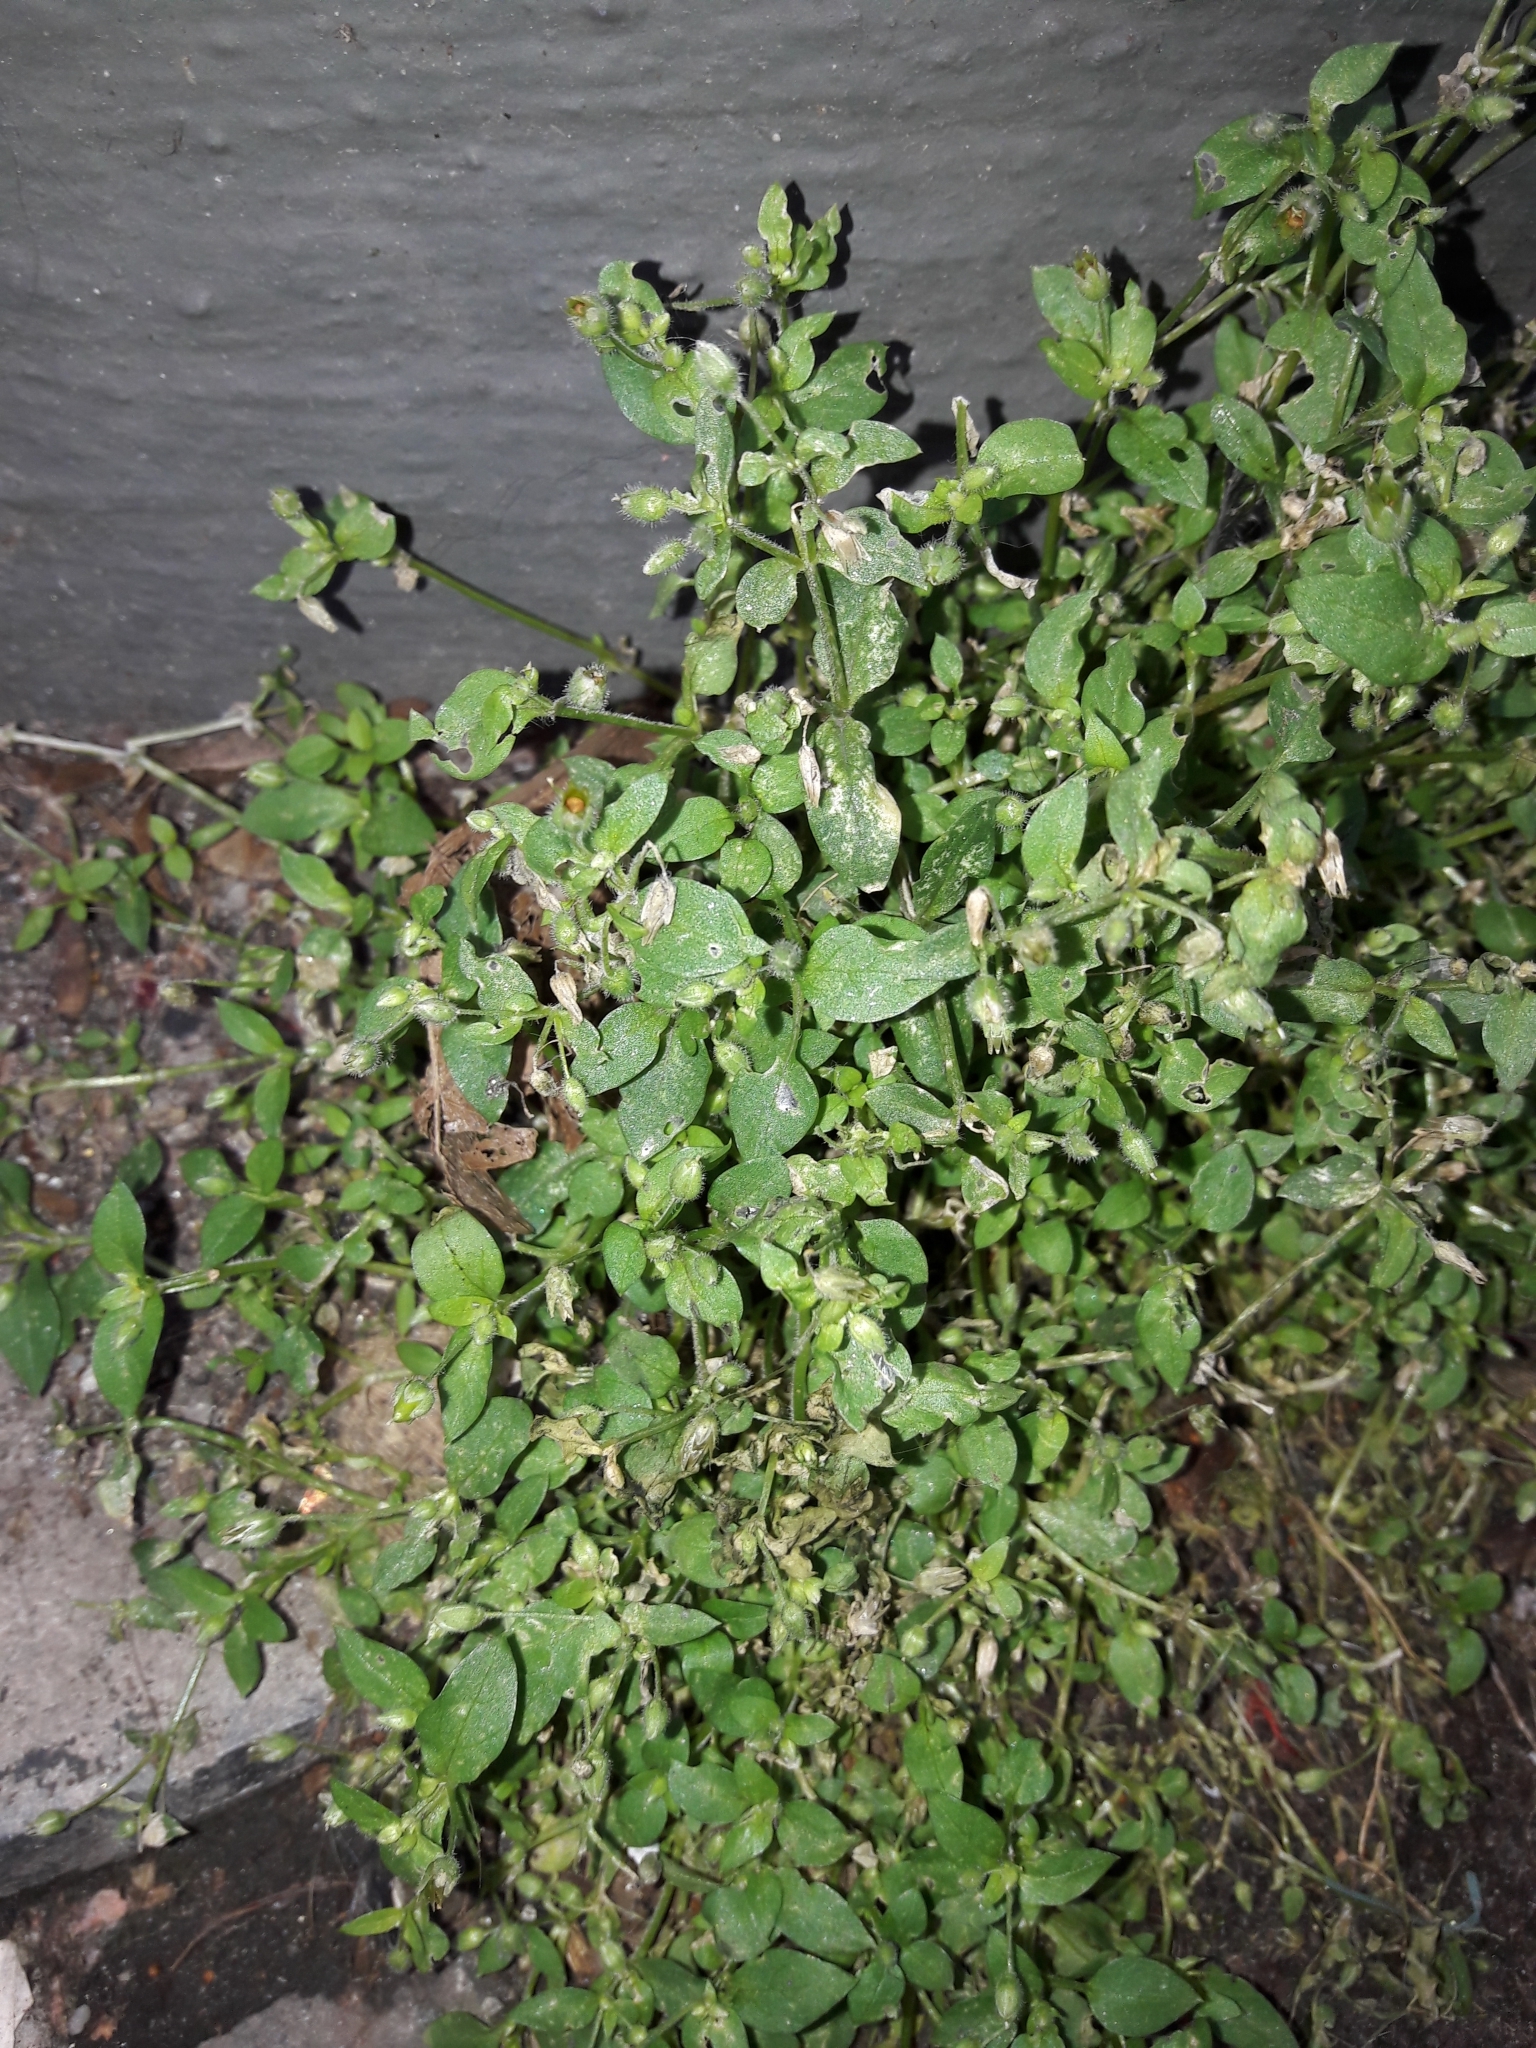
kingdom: Plantae
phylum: Tracheophyta
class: Magnoliopsida
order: Caryophyllales
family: Caryophyllaceae
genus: Stellaria
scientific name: Stellaria media
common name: Common chickweed
